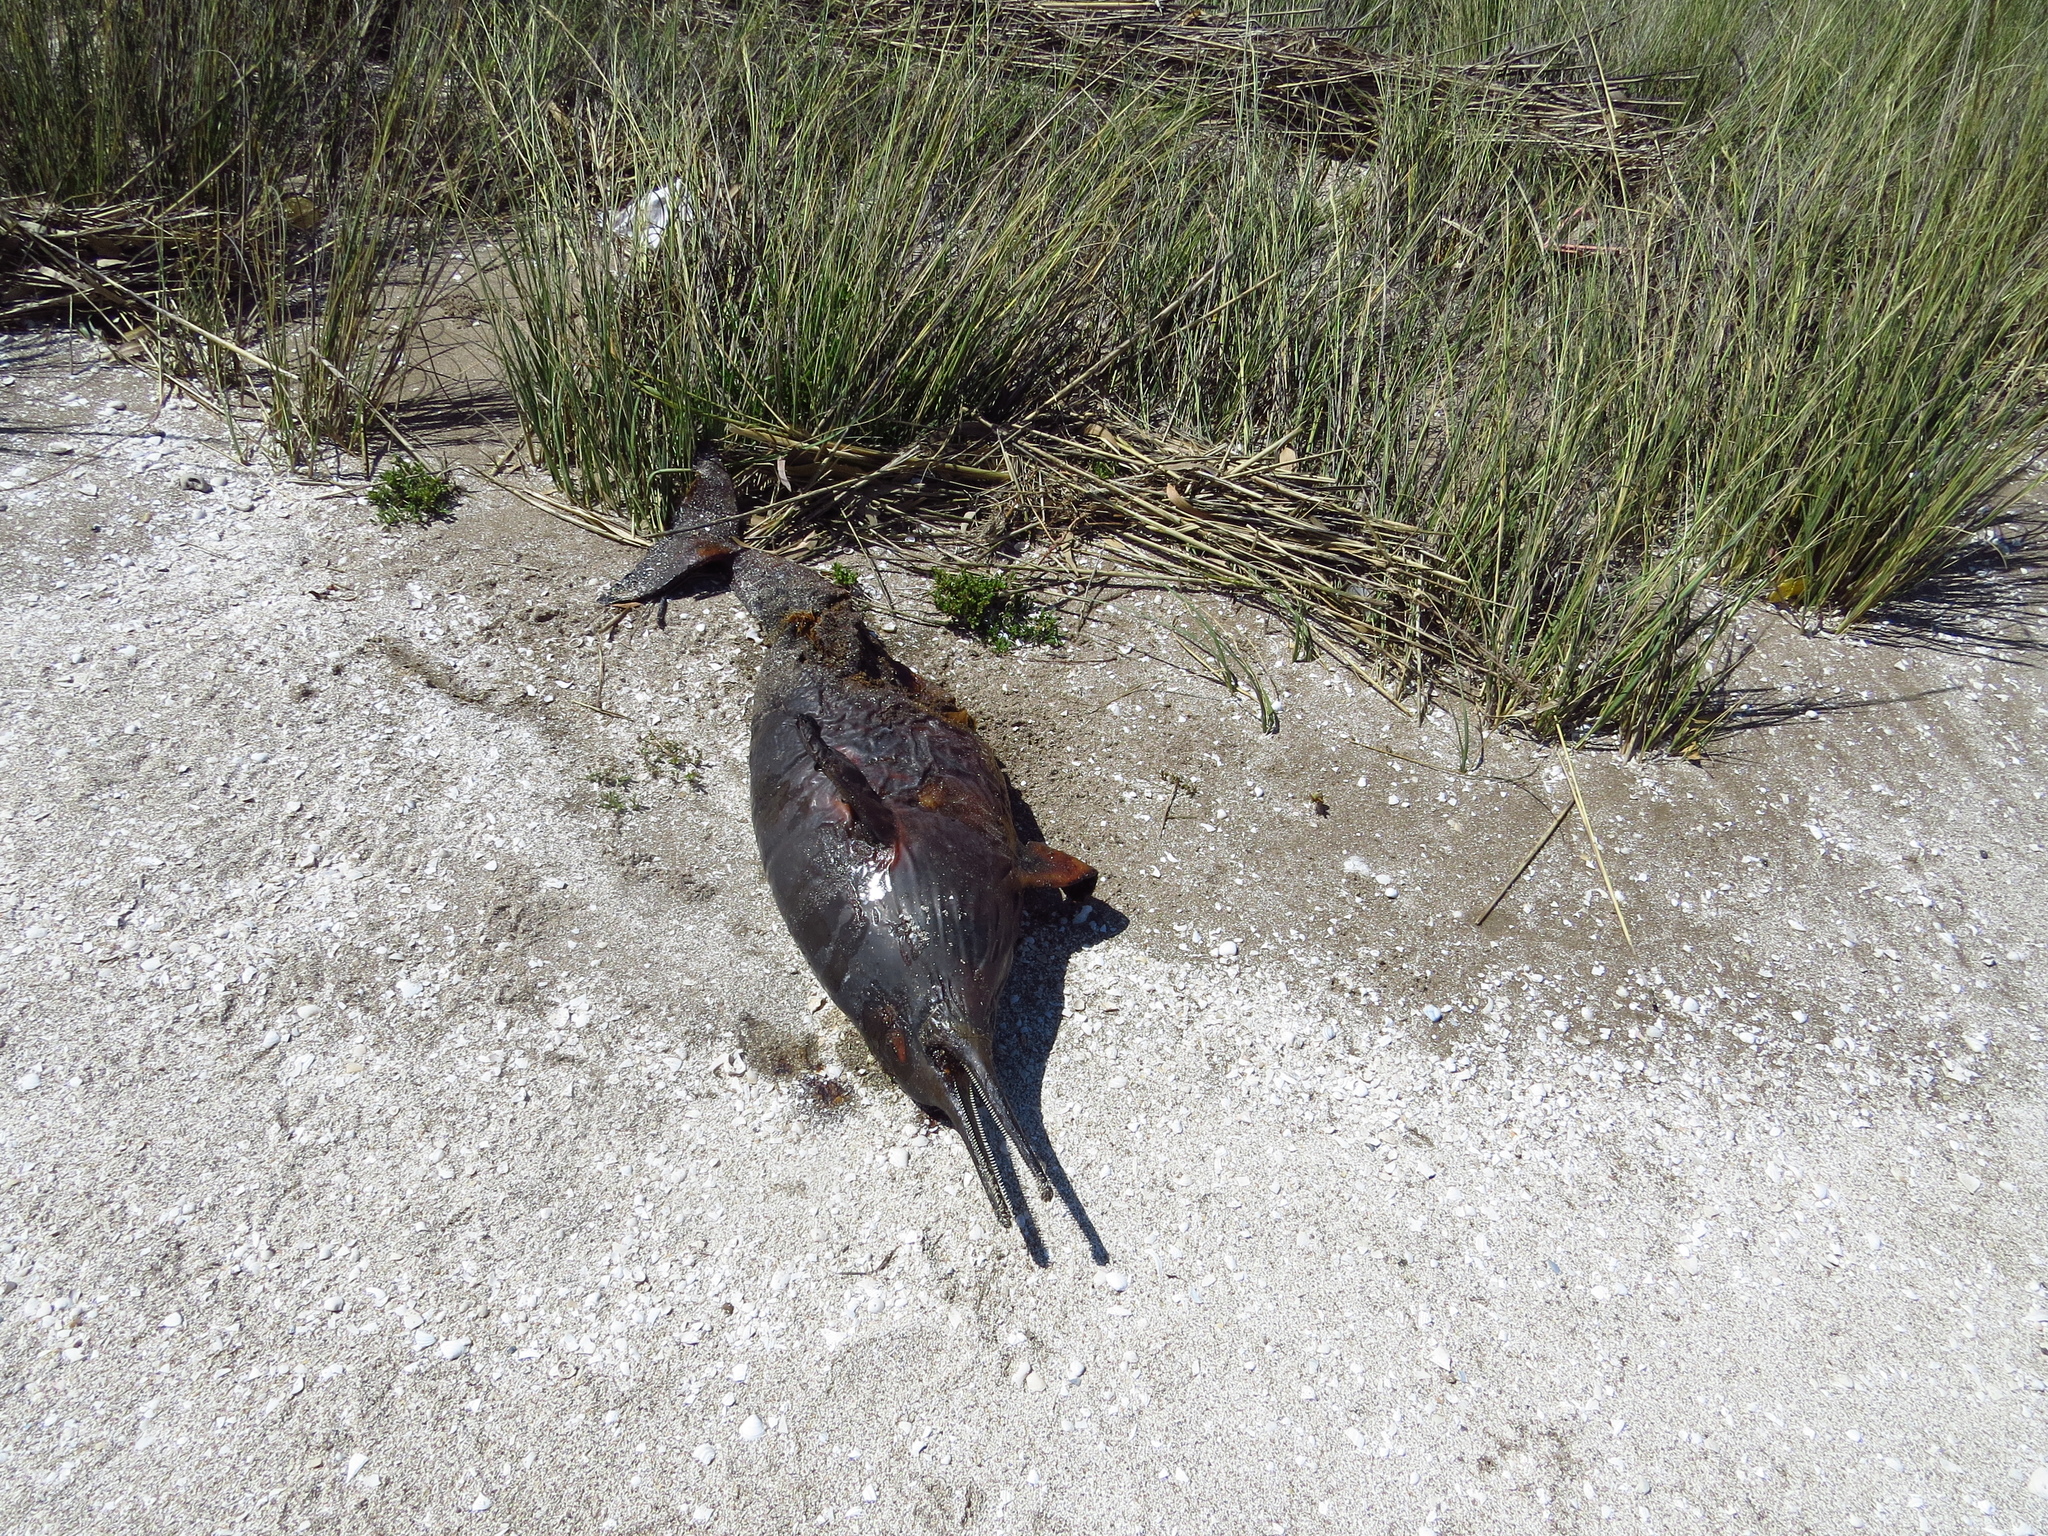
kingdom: Animalia
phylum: Chordata
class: Mammalia
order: Cetacea
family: Pontoporiidae
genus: Pontoporia
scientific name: Pontoporia blainvillei
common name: Franciscana
